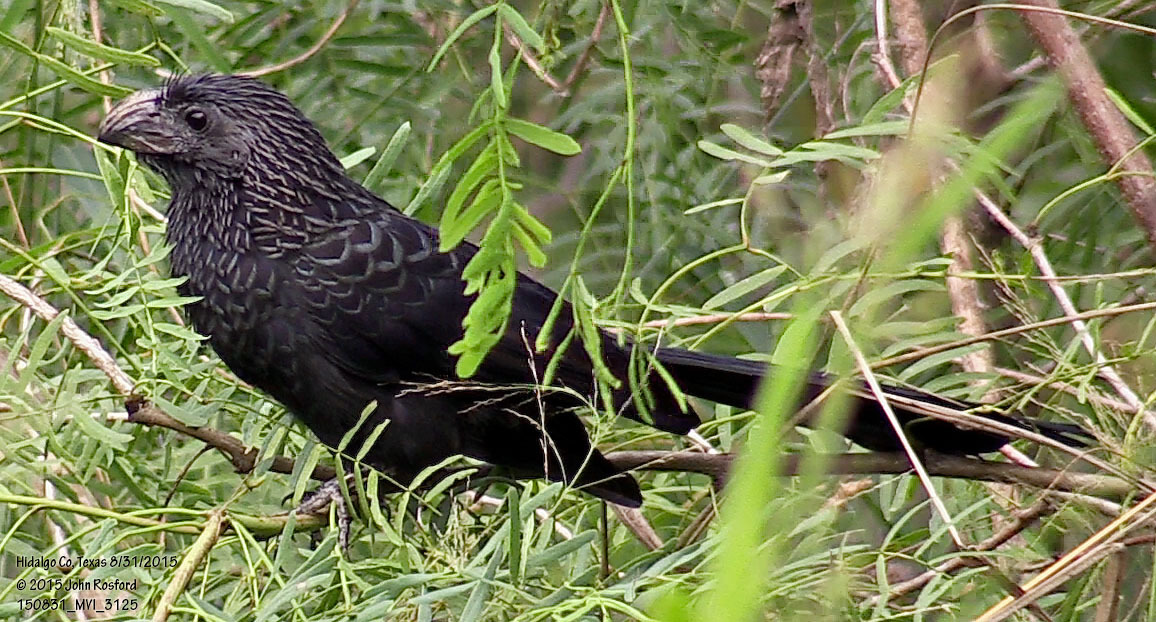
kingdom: Animalia
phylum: Chordata
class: Aves
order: Cuculiformes
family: Cuculidae
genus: Crotophaga
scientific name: Crotophaga sulcirostris
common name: Groove-billed ani
